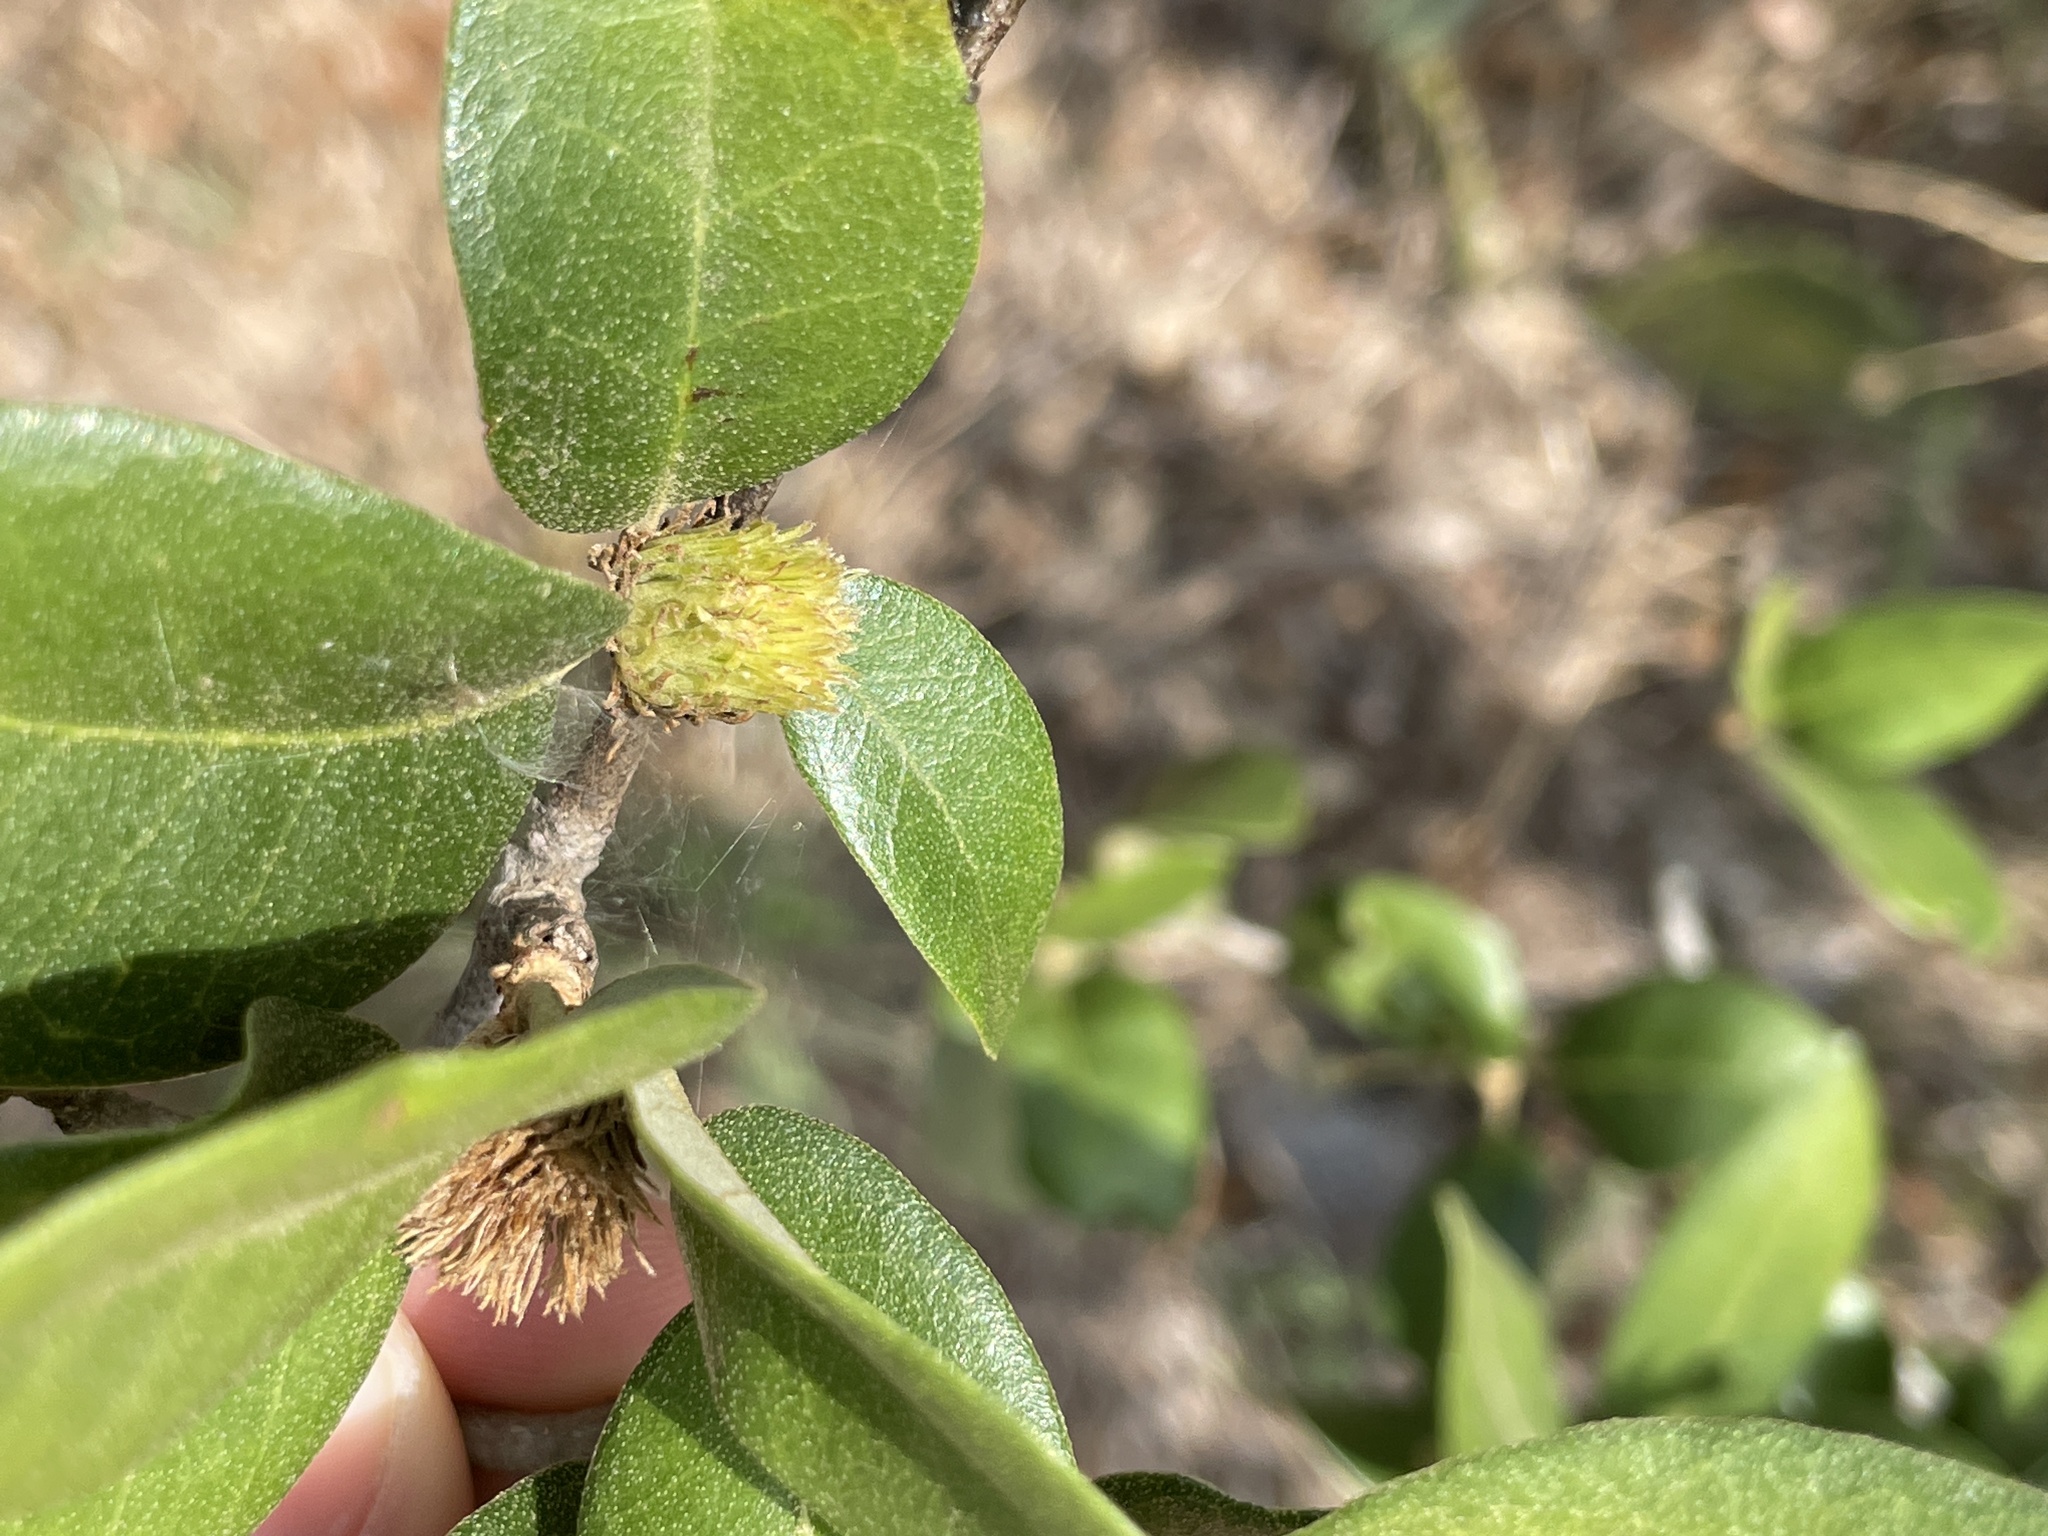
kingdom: Animalia
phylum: Arthropoda
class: Insecta
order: Hymenoptera
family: Cynipidae
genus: Andricus
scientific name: Andricus quercusfoliatus
